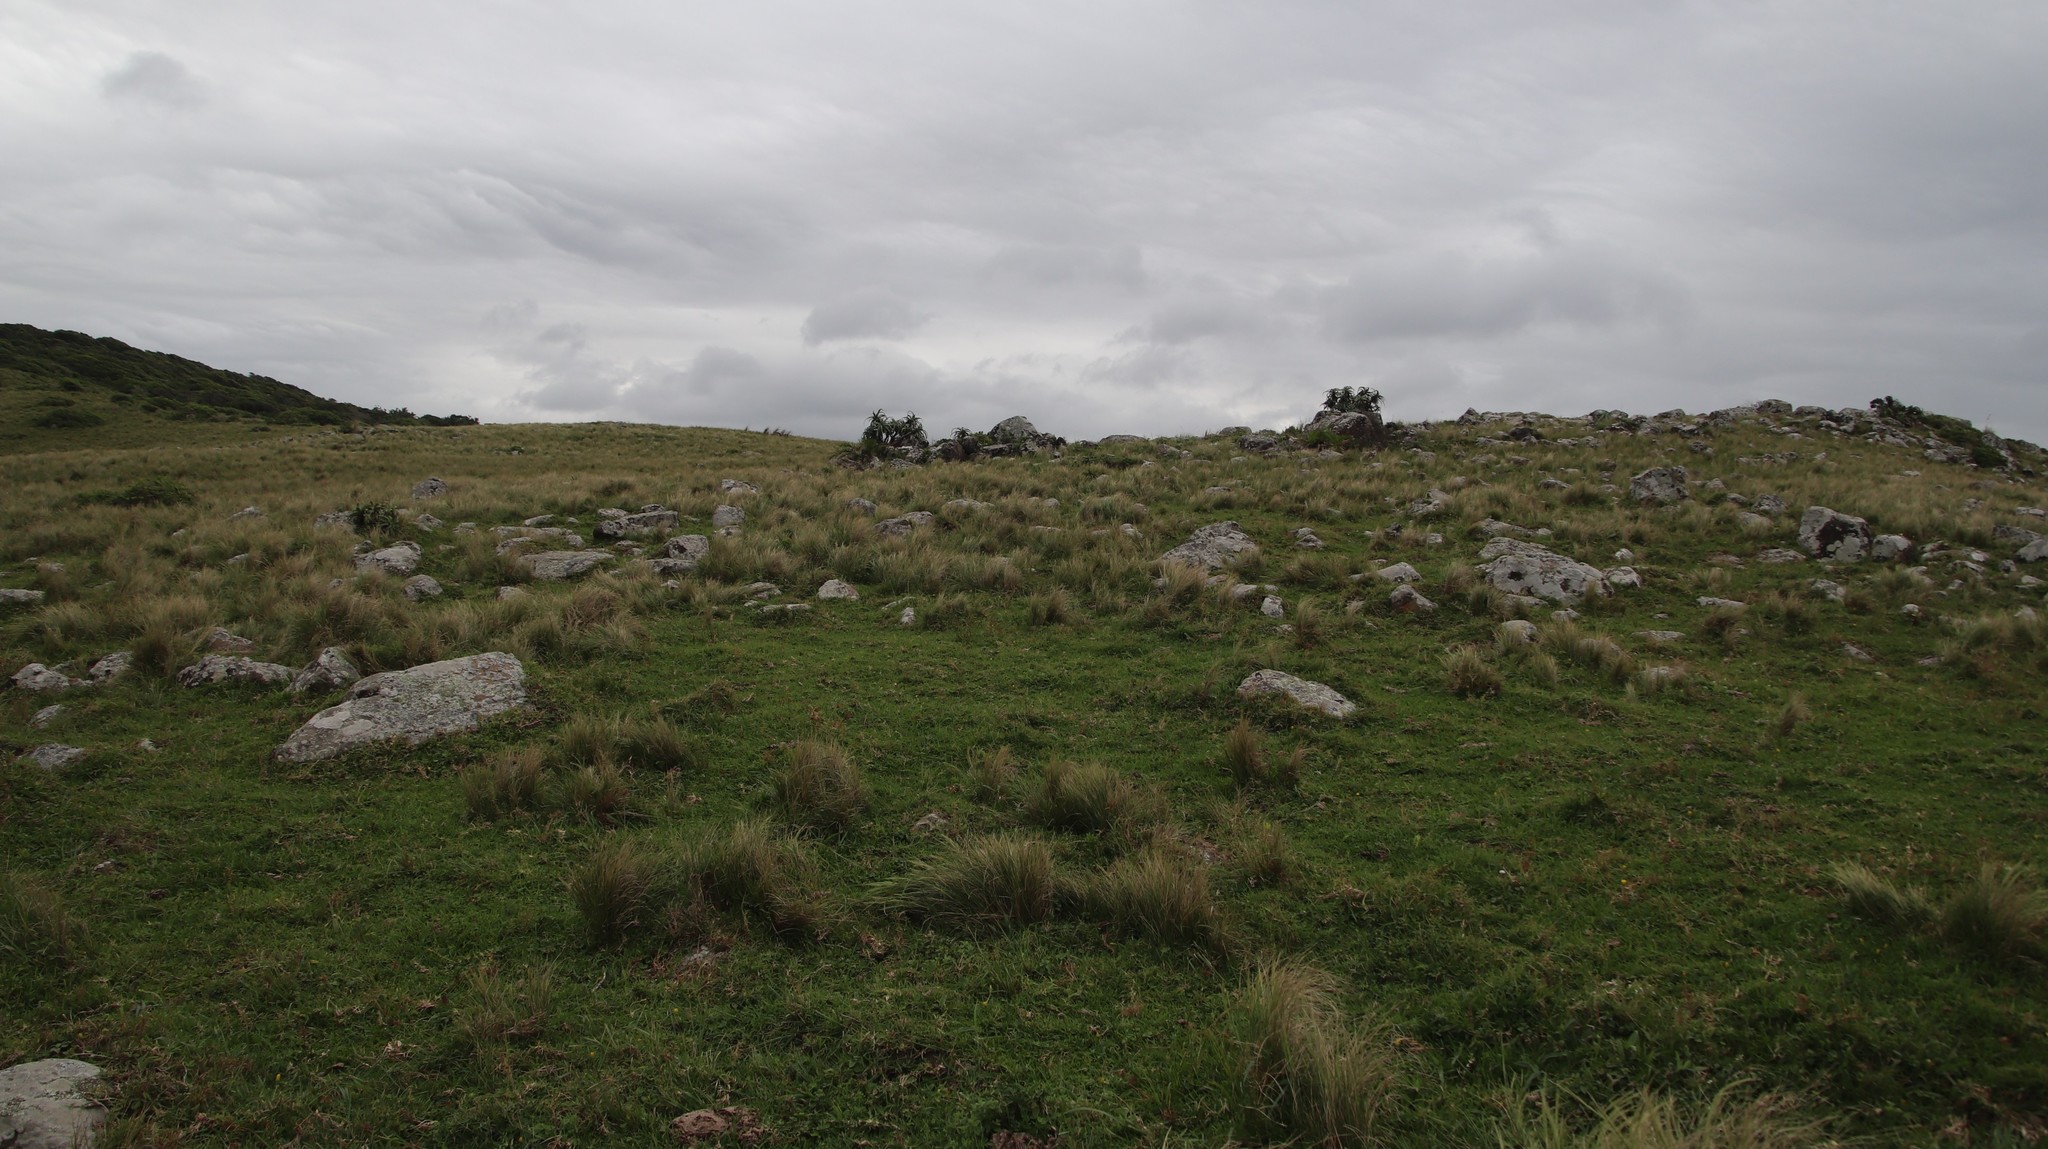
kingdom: Plantae
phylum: Tracheophyta
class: Liliopsida
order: Poales
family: Poaceae
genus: Stenotaphrum
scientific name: Stenotaphrum secundatum
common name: St. augustine grass
